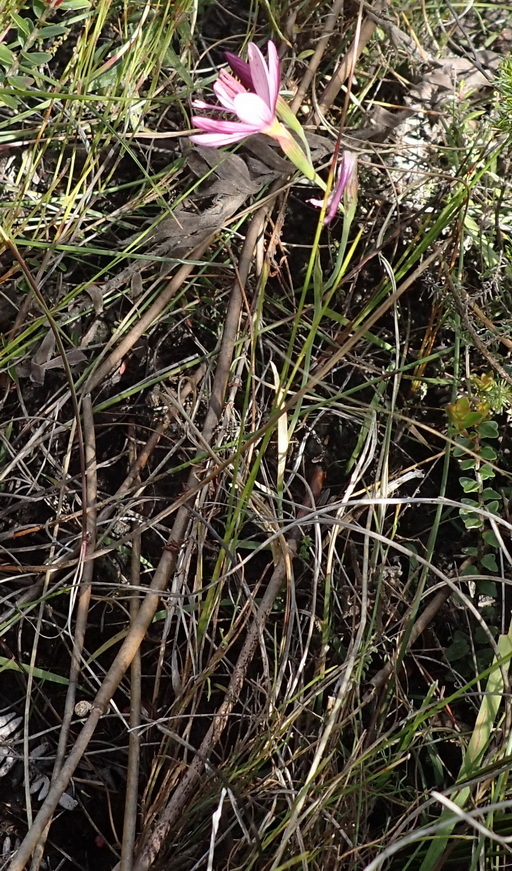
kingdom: Plantae
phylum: Tracheophyta
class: Liliopsida
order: Asparagales
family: Iridaceae
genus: Geissorhiza
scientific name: Geissorhiza inconspicua
